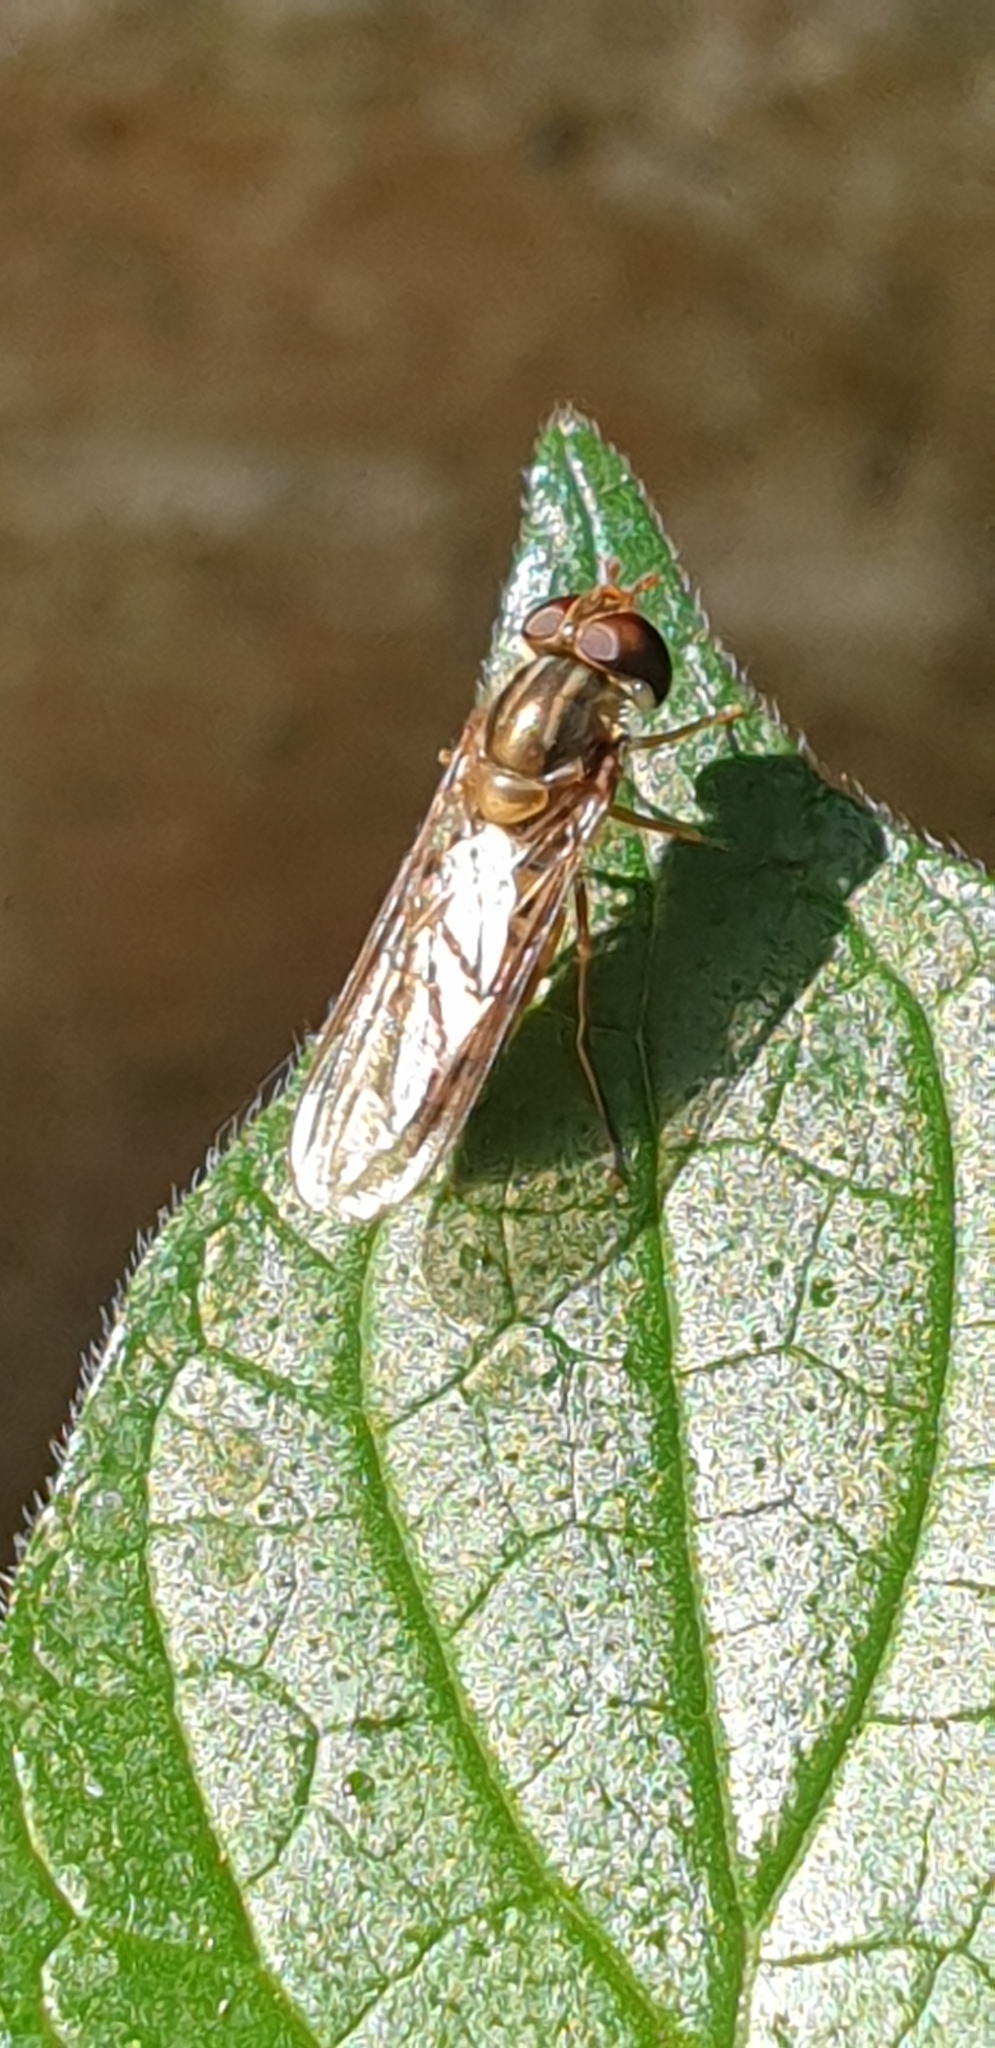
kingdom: Animalia
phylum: Arthropoda
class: Insecta
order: Diptera
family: Syrphidae
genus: Episyrphus
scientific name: Episyrphus balteatus
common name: Marmalade hoverfly
